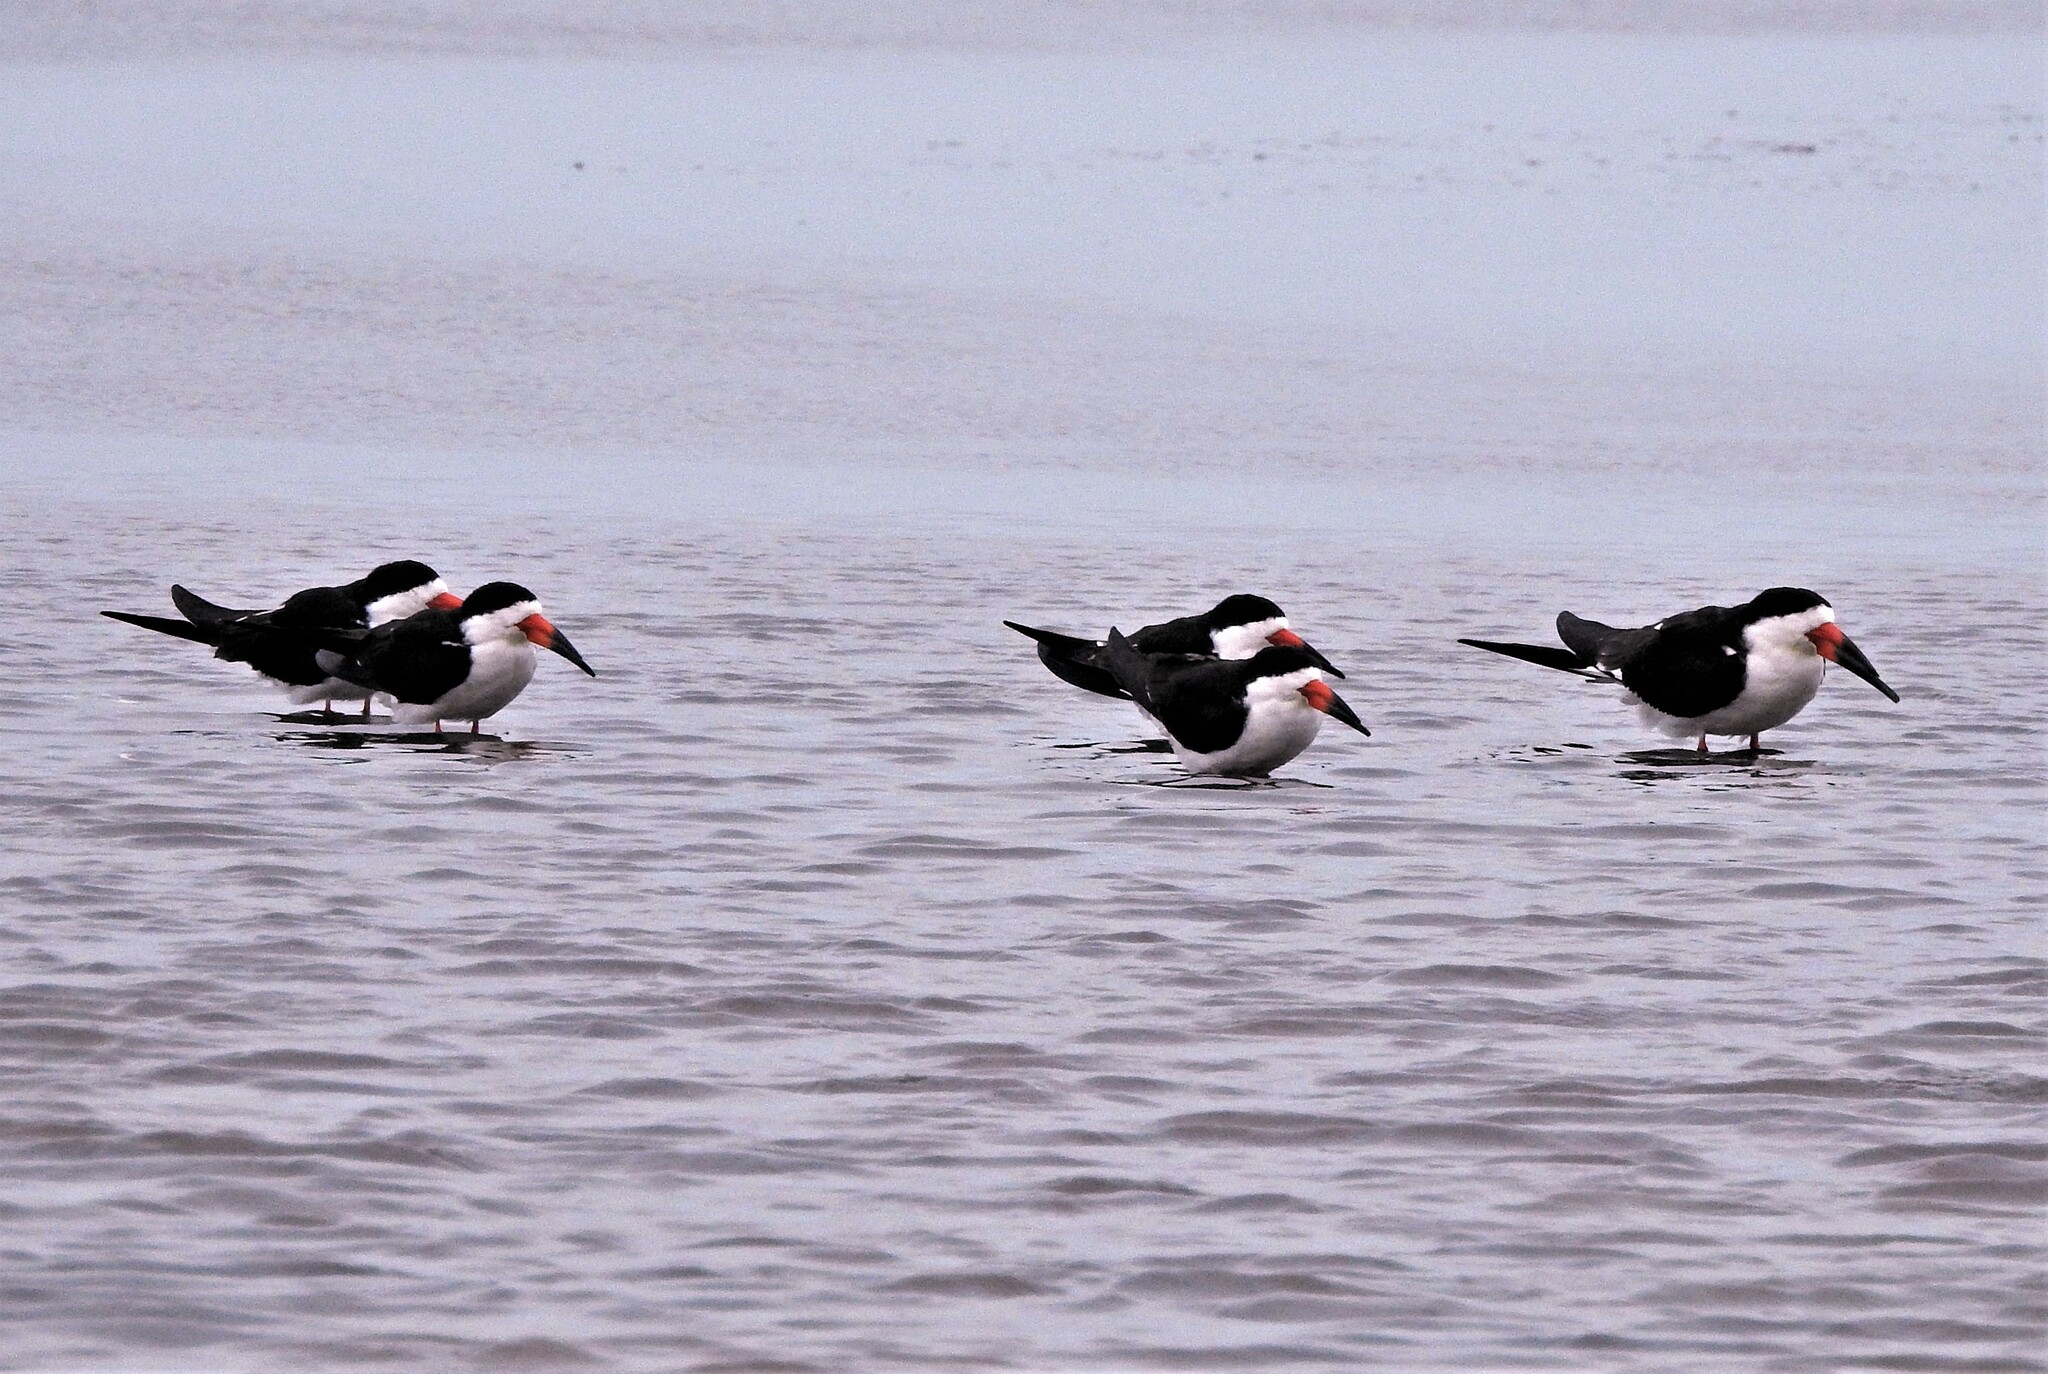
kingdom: Animalia
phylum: Chordata
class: Aves
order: Charadriiformes
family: Laridae
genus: Rynchops
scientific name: Rynchops niger
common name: Black skimmer
